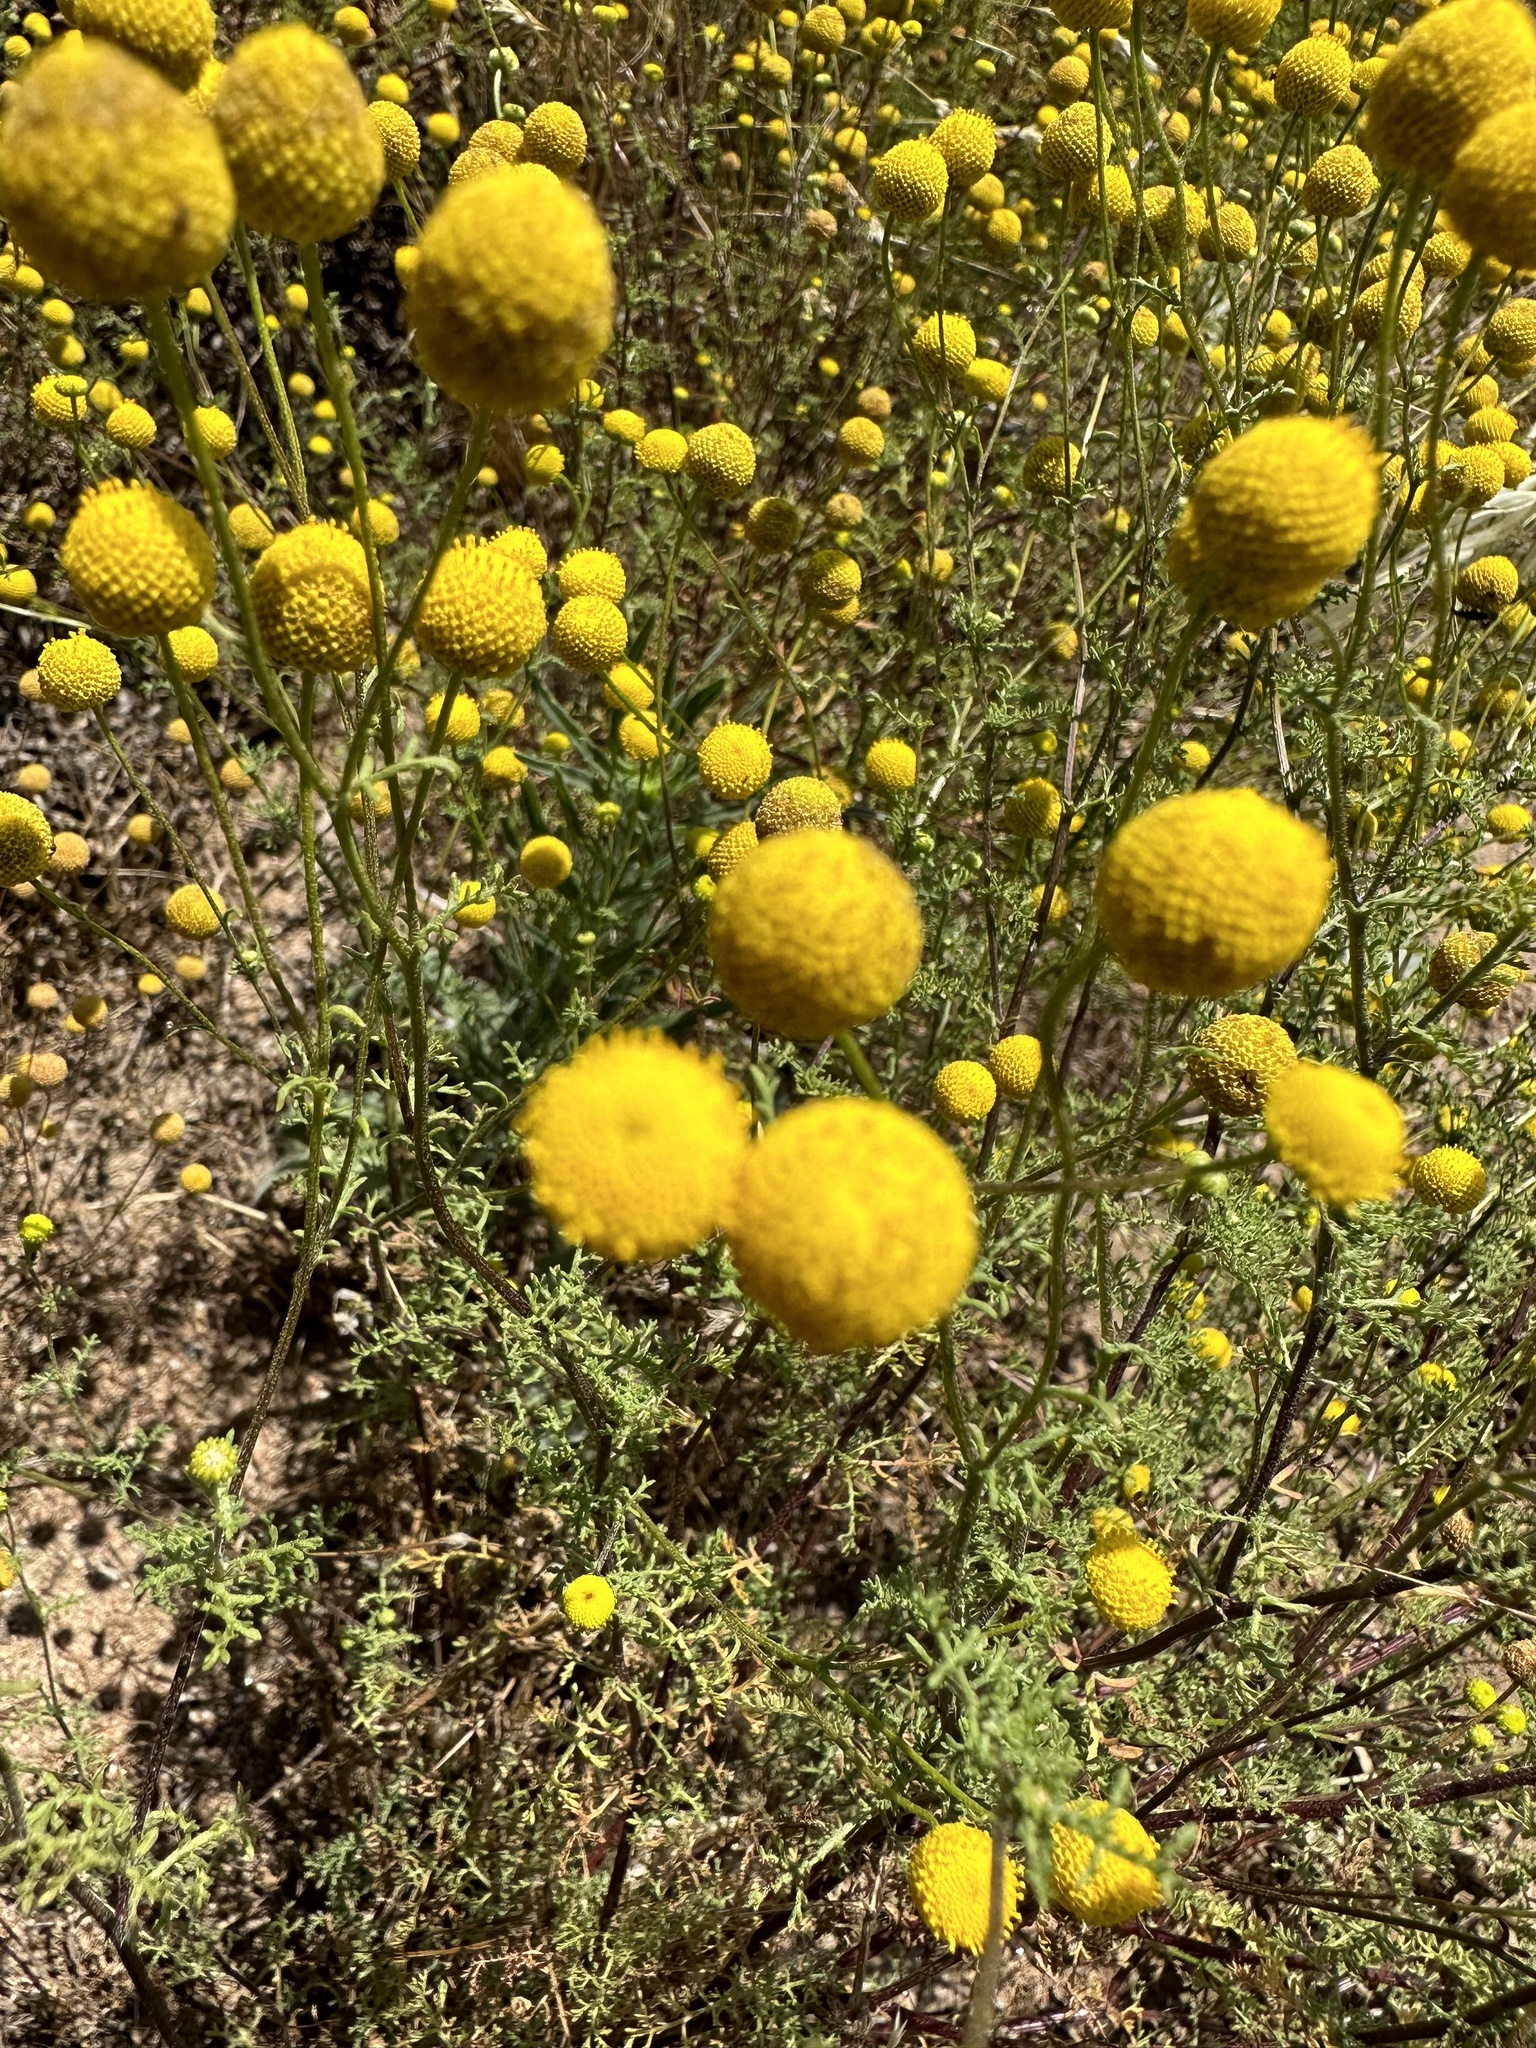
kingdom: Plantae
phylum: Tracheophyta
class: Magnoliopsida
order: Asterales
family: Asteraceae
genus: Oncosiphon
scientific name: Oncosiphon pilulifer
